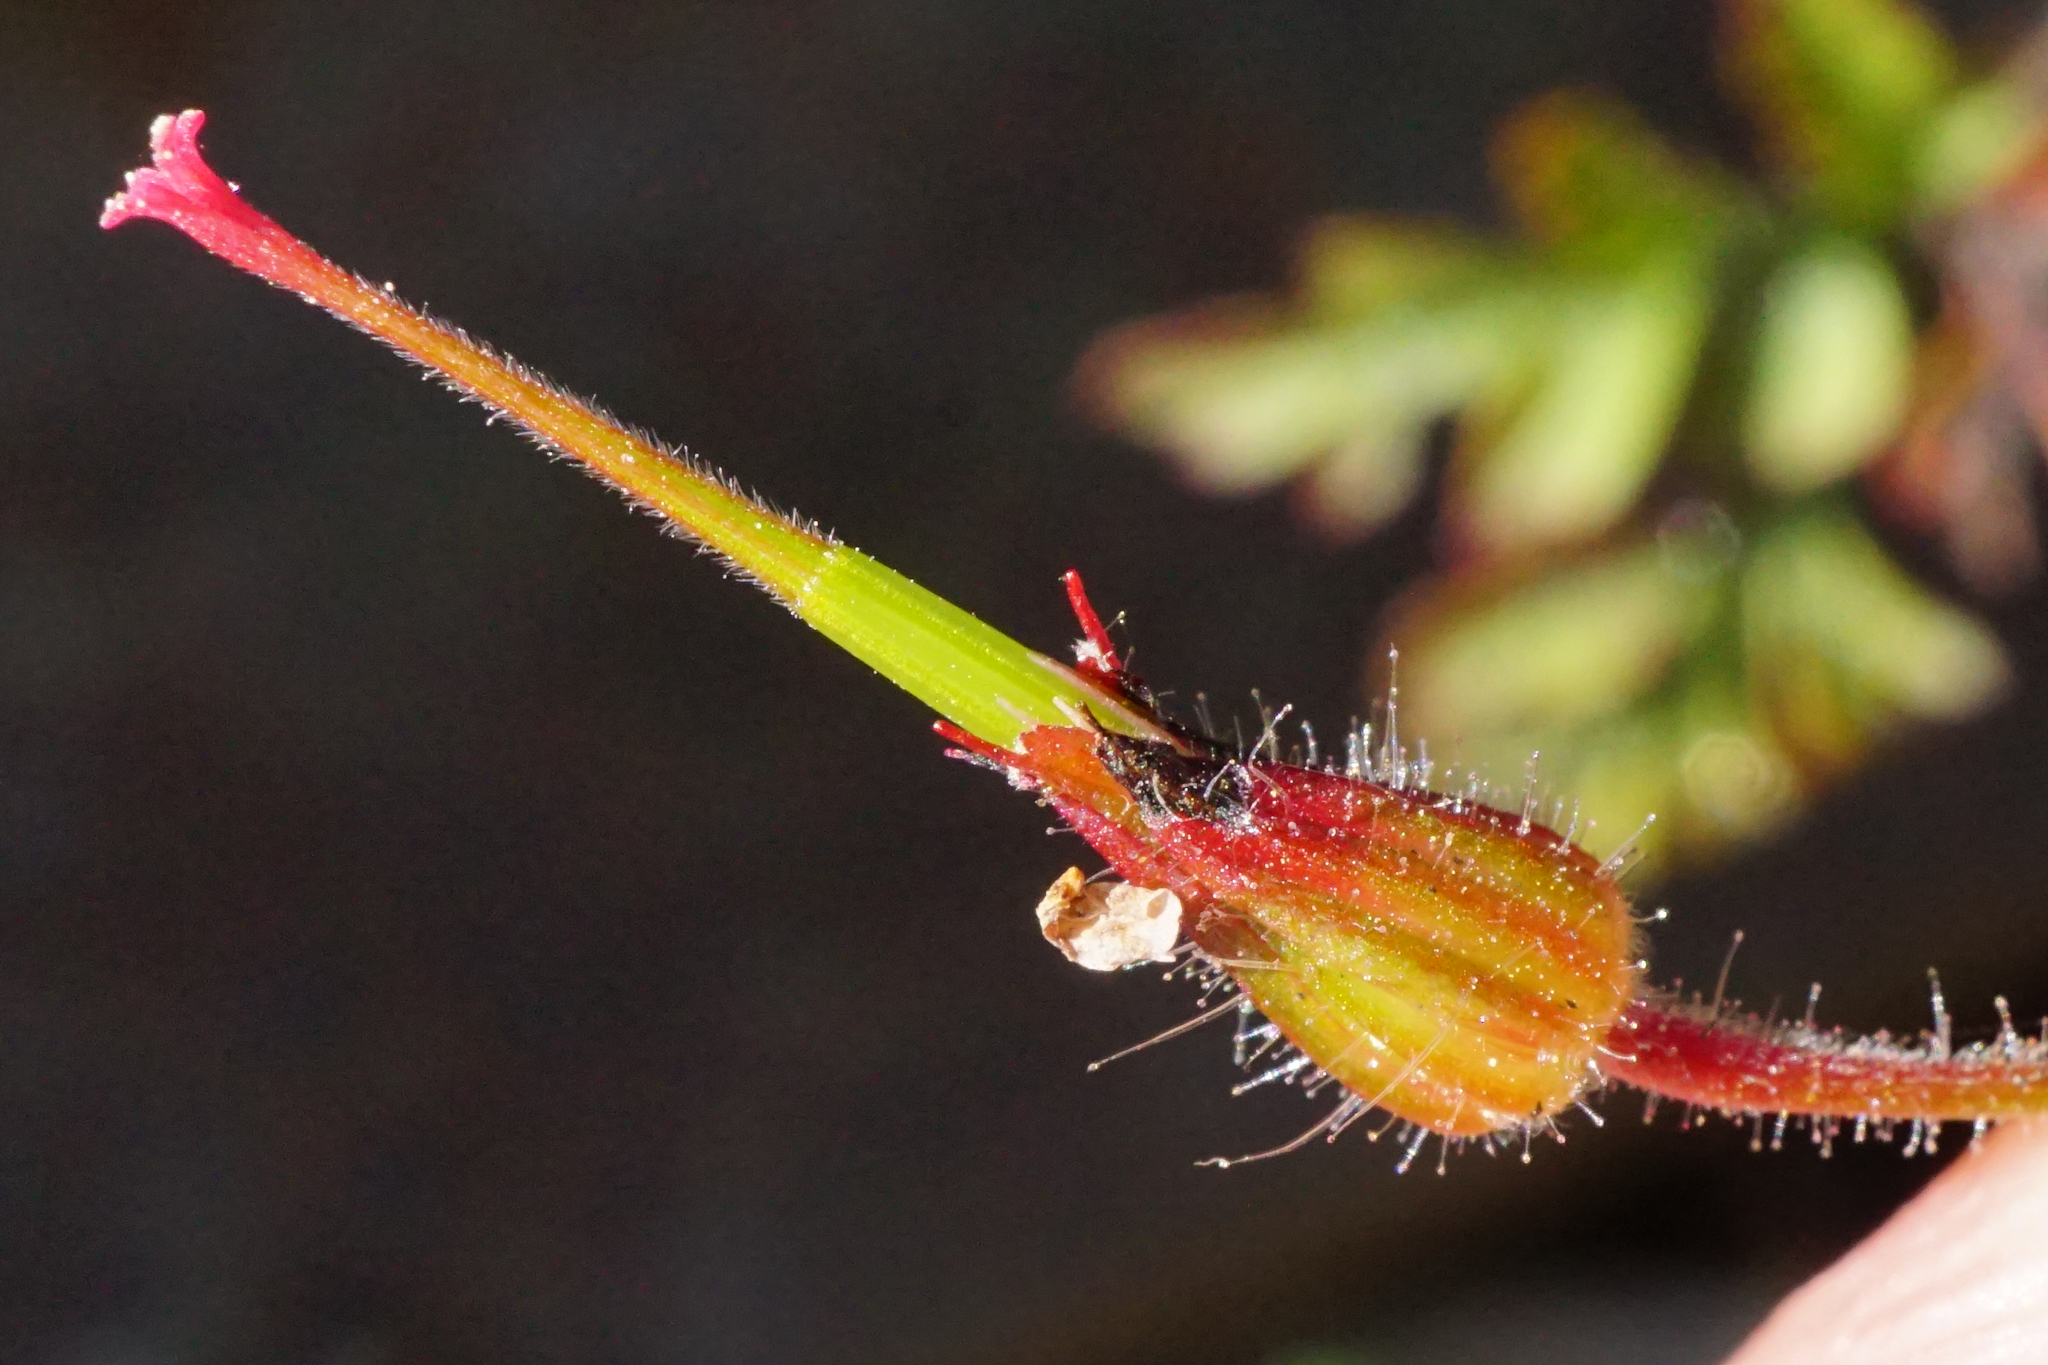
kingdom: Plantae
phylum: Tracheophyta
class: Magnoliopsida
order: Geraniales
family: Geraniaceae
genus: Geranium
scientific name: Geranium robertianum
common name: Herb-robert
